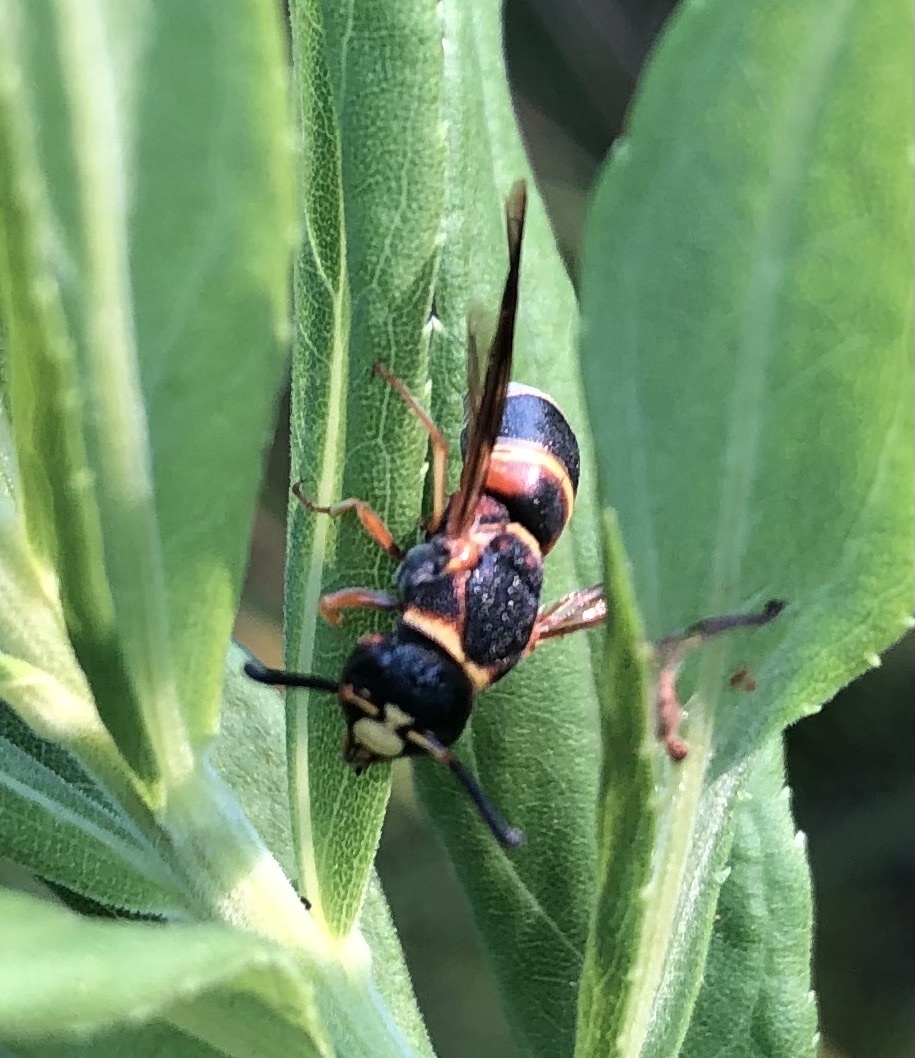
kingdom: Animalia
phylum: Arthropoda
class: Insecta
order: Hymenoptera
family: Eumenidae
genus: Euodynerus
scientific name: Euodynerus hidalgo
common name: Wasp
